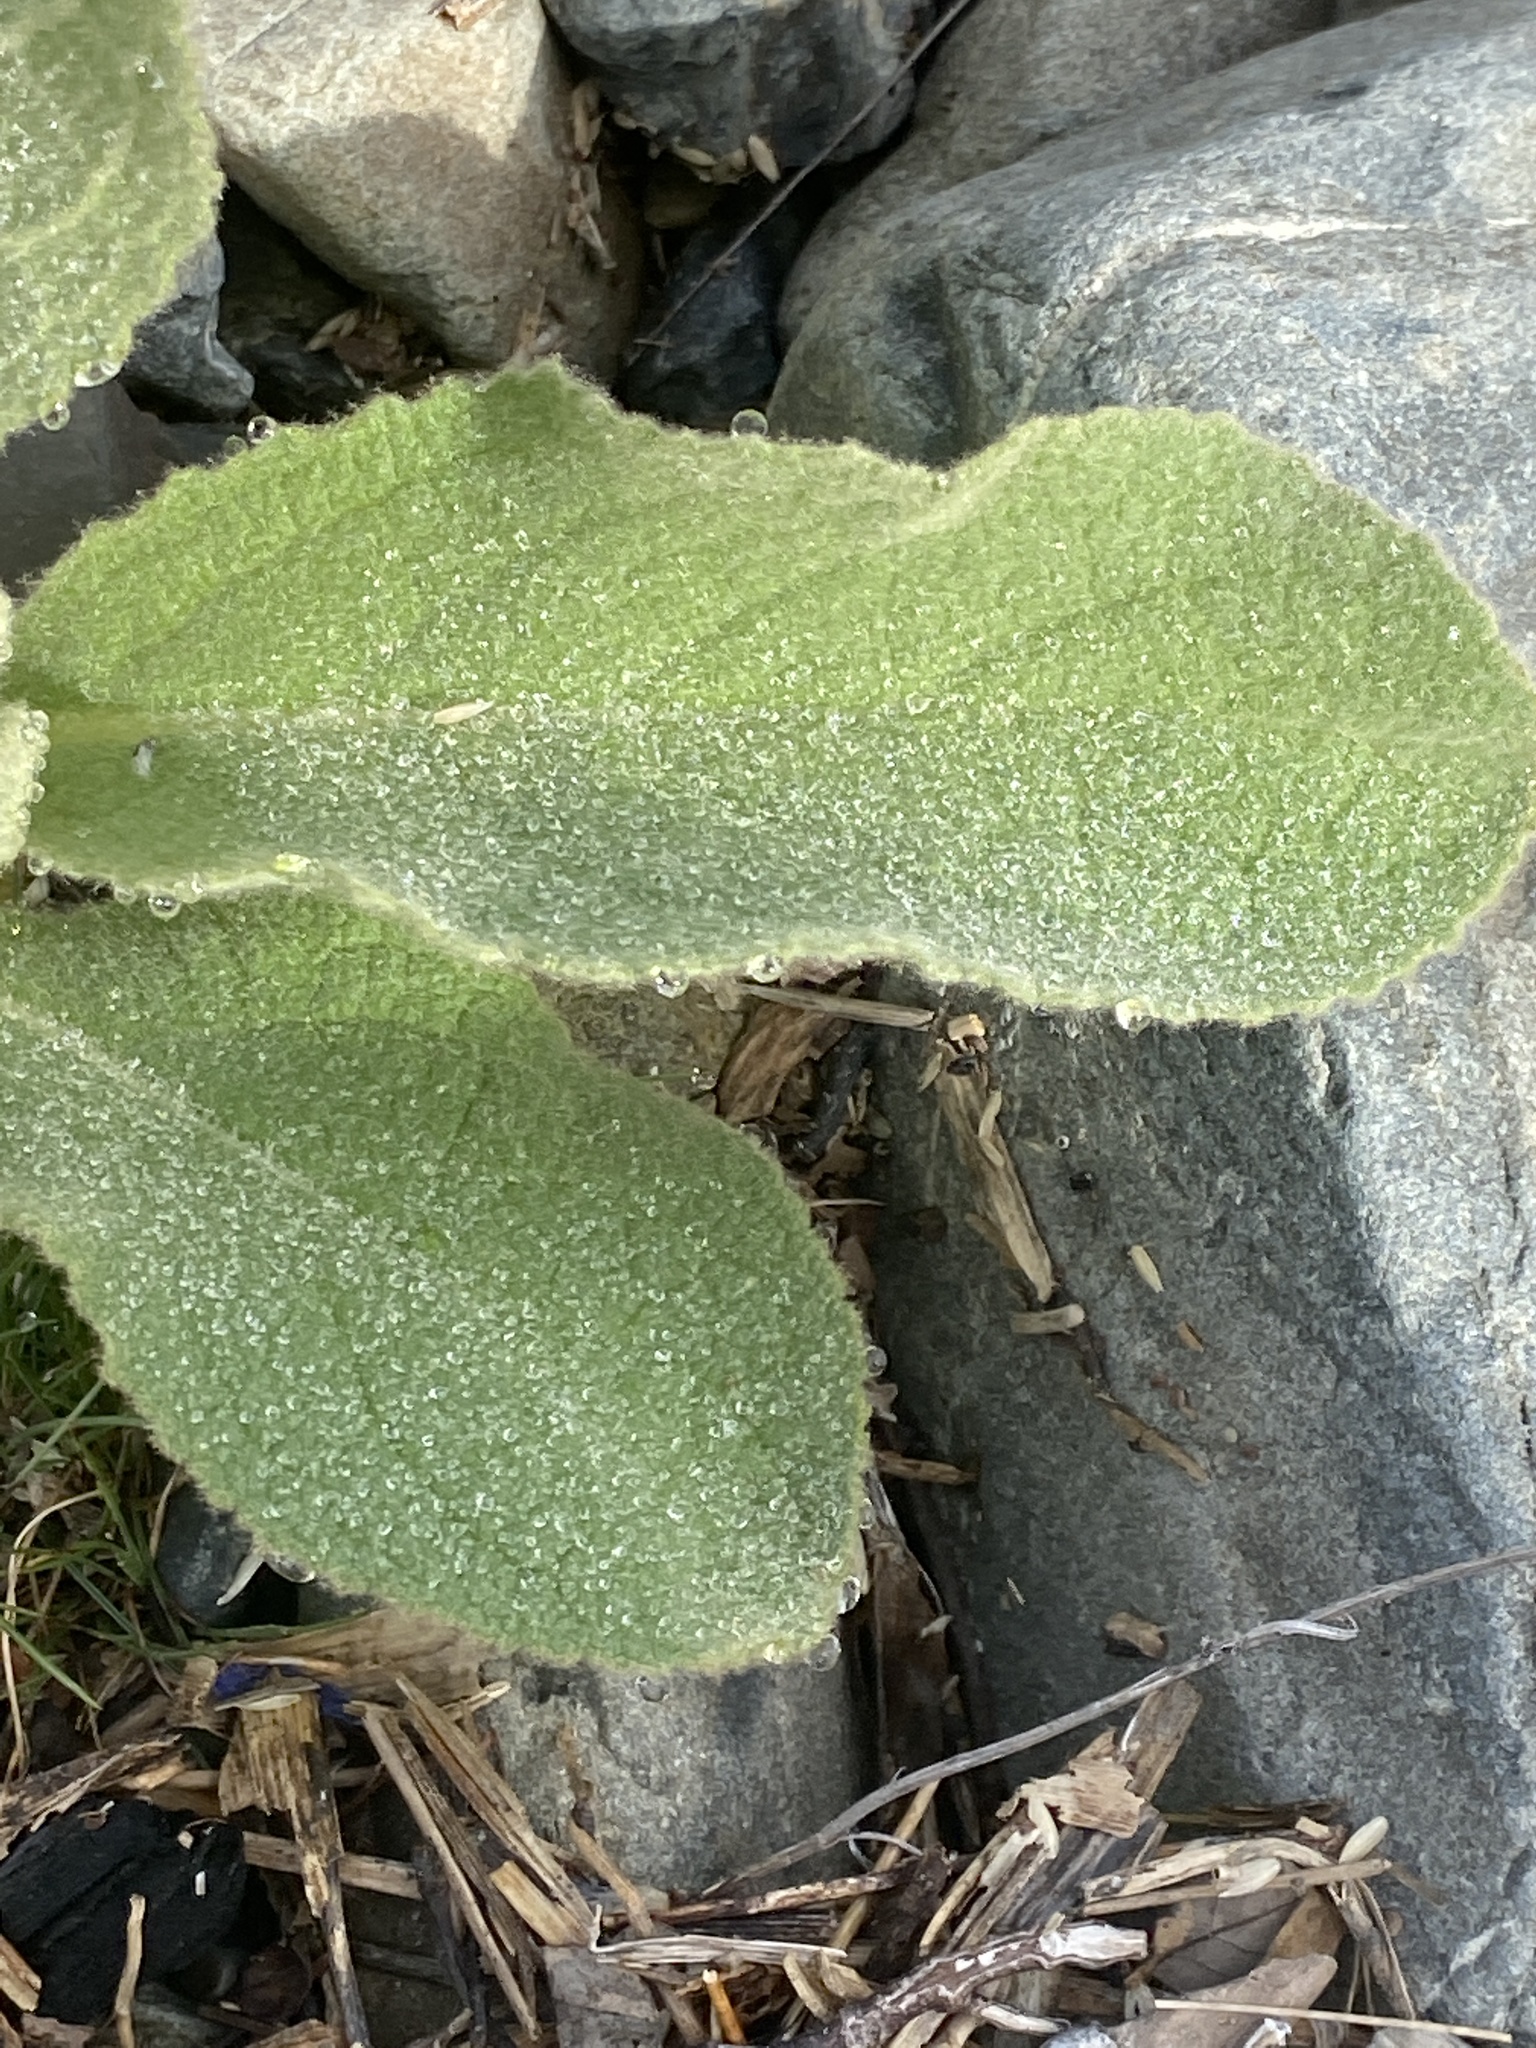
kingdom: Plantae
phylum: Tracheophyta
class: Magnoliopsida
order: Lamiales
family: Scrophulariaceae
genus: Verbascum
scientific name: Verbascum thapsus
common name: Common mullein
